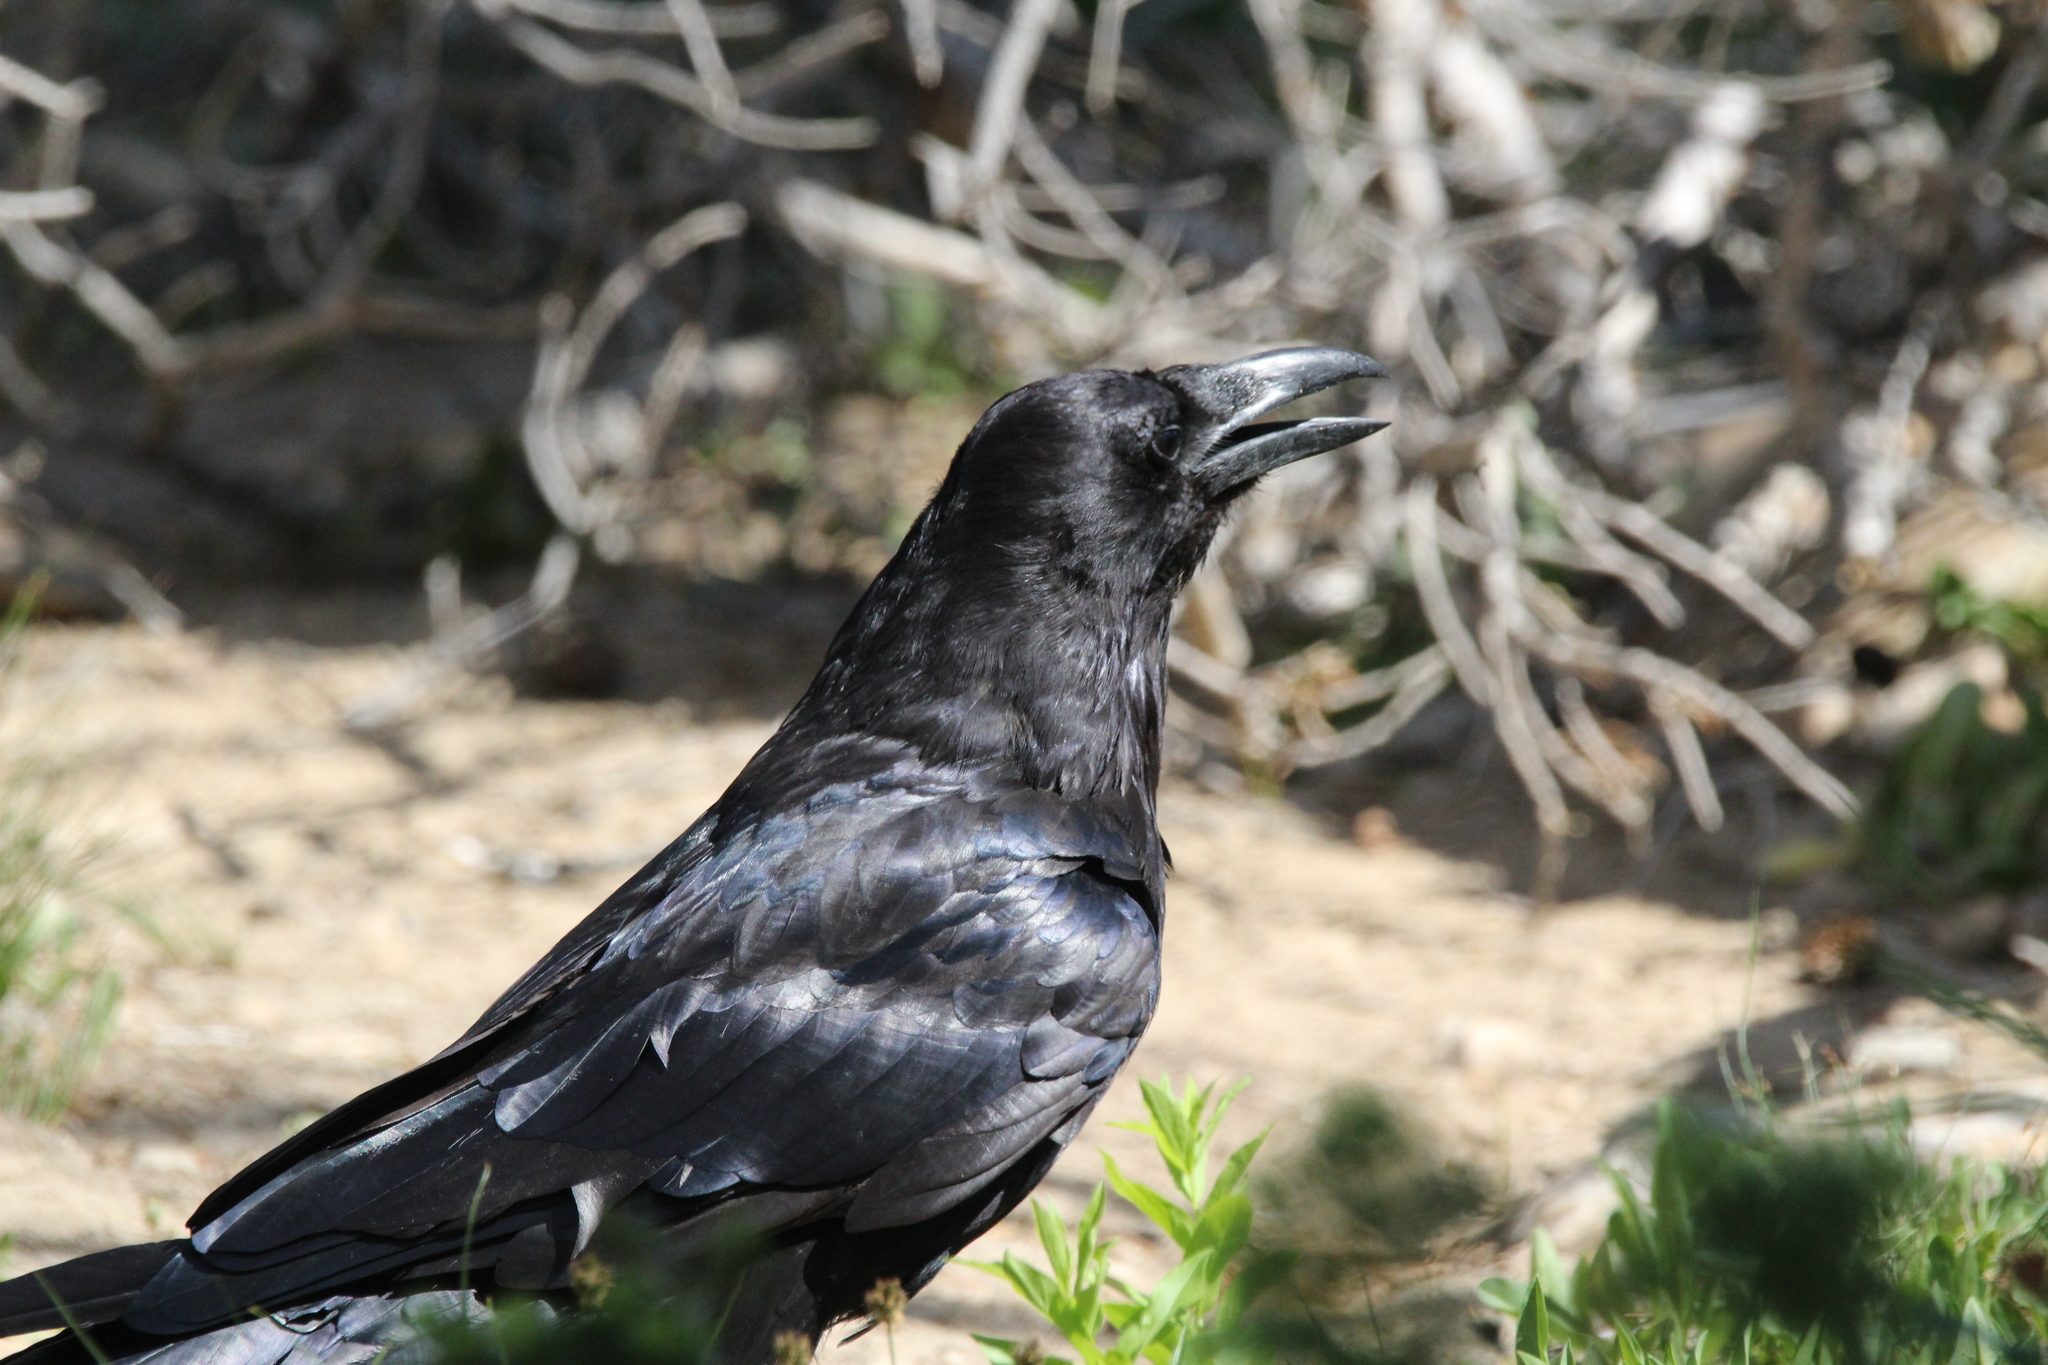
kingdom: Animalia
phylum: Chordata
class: Aves
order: Passeriformes
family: Corvidae
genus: Corvus
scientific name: Corvus corax
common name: Common raven
